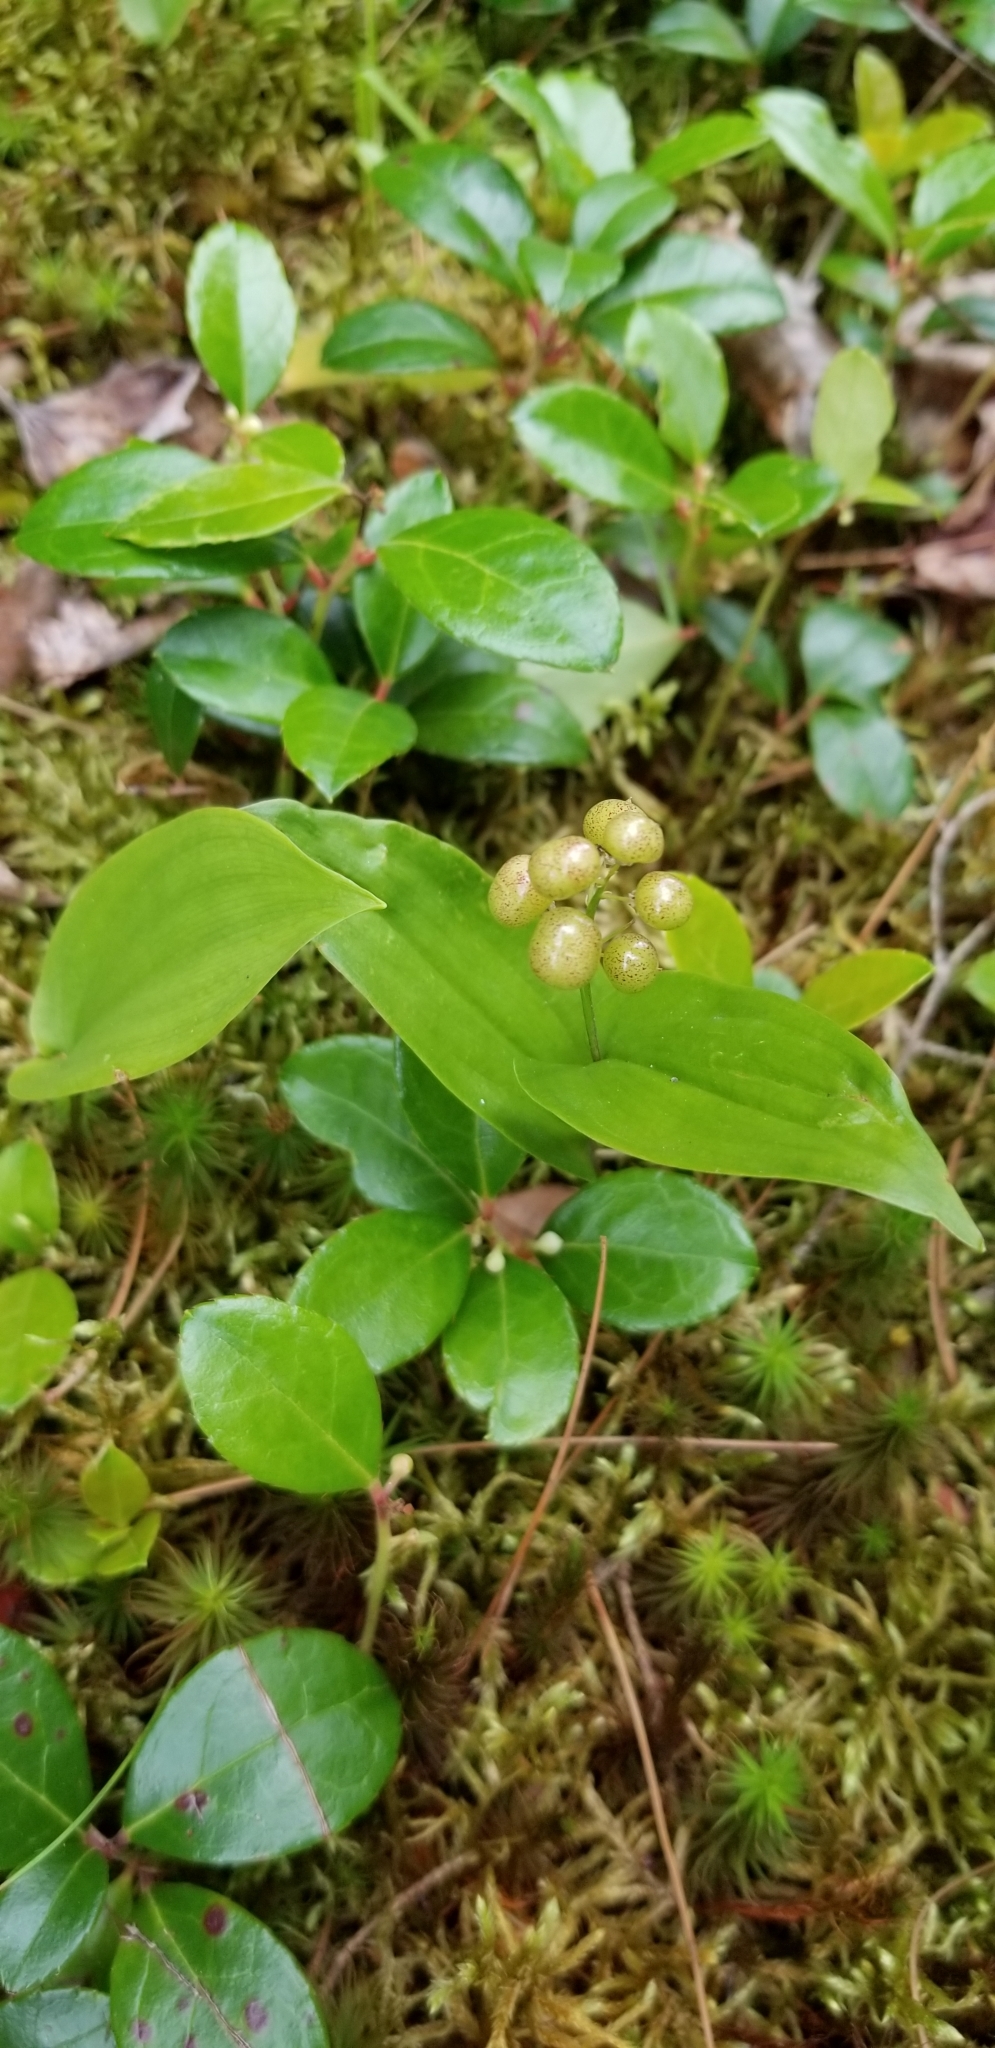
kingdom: Plantae
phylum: Tracheophyta
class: Liliopsida
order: Asparagales
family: Asparagaceae
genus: Maianthemum
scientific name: Maianthemum canadense
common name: False lily-of-the-valley
